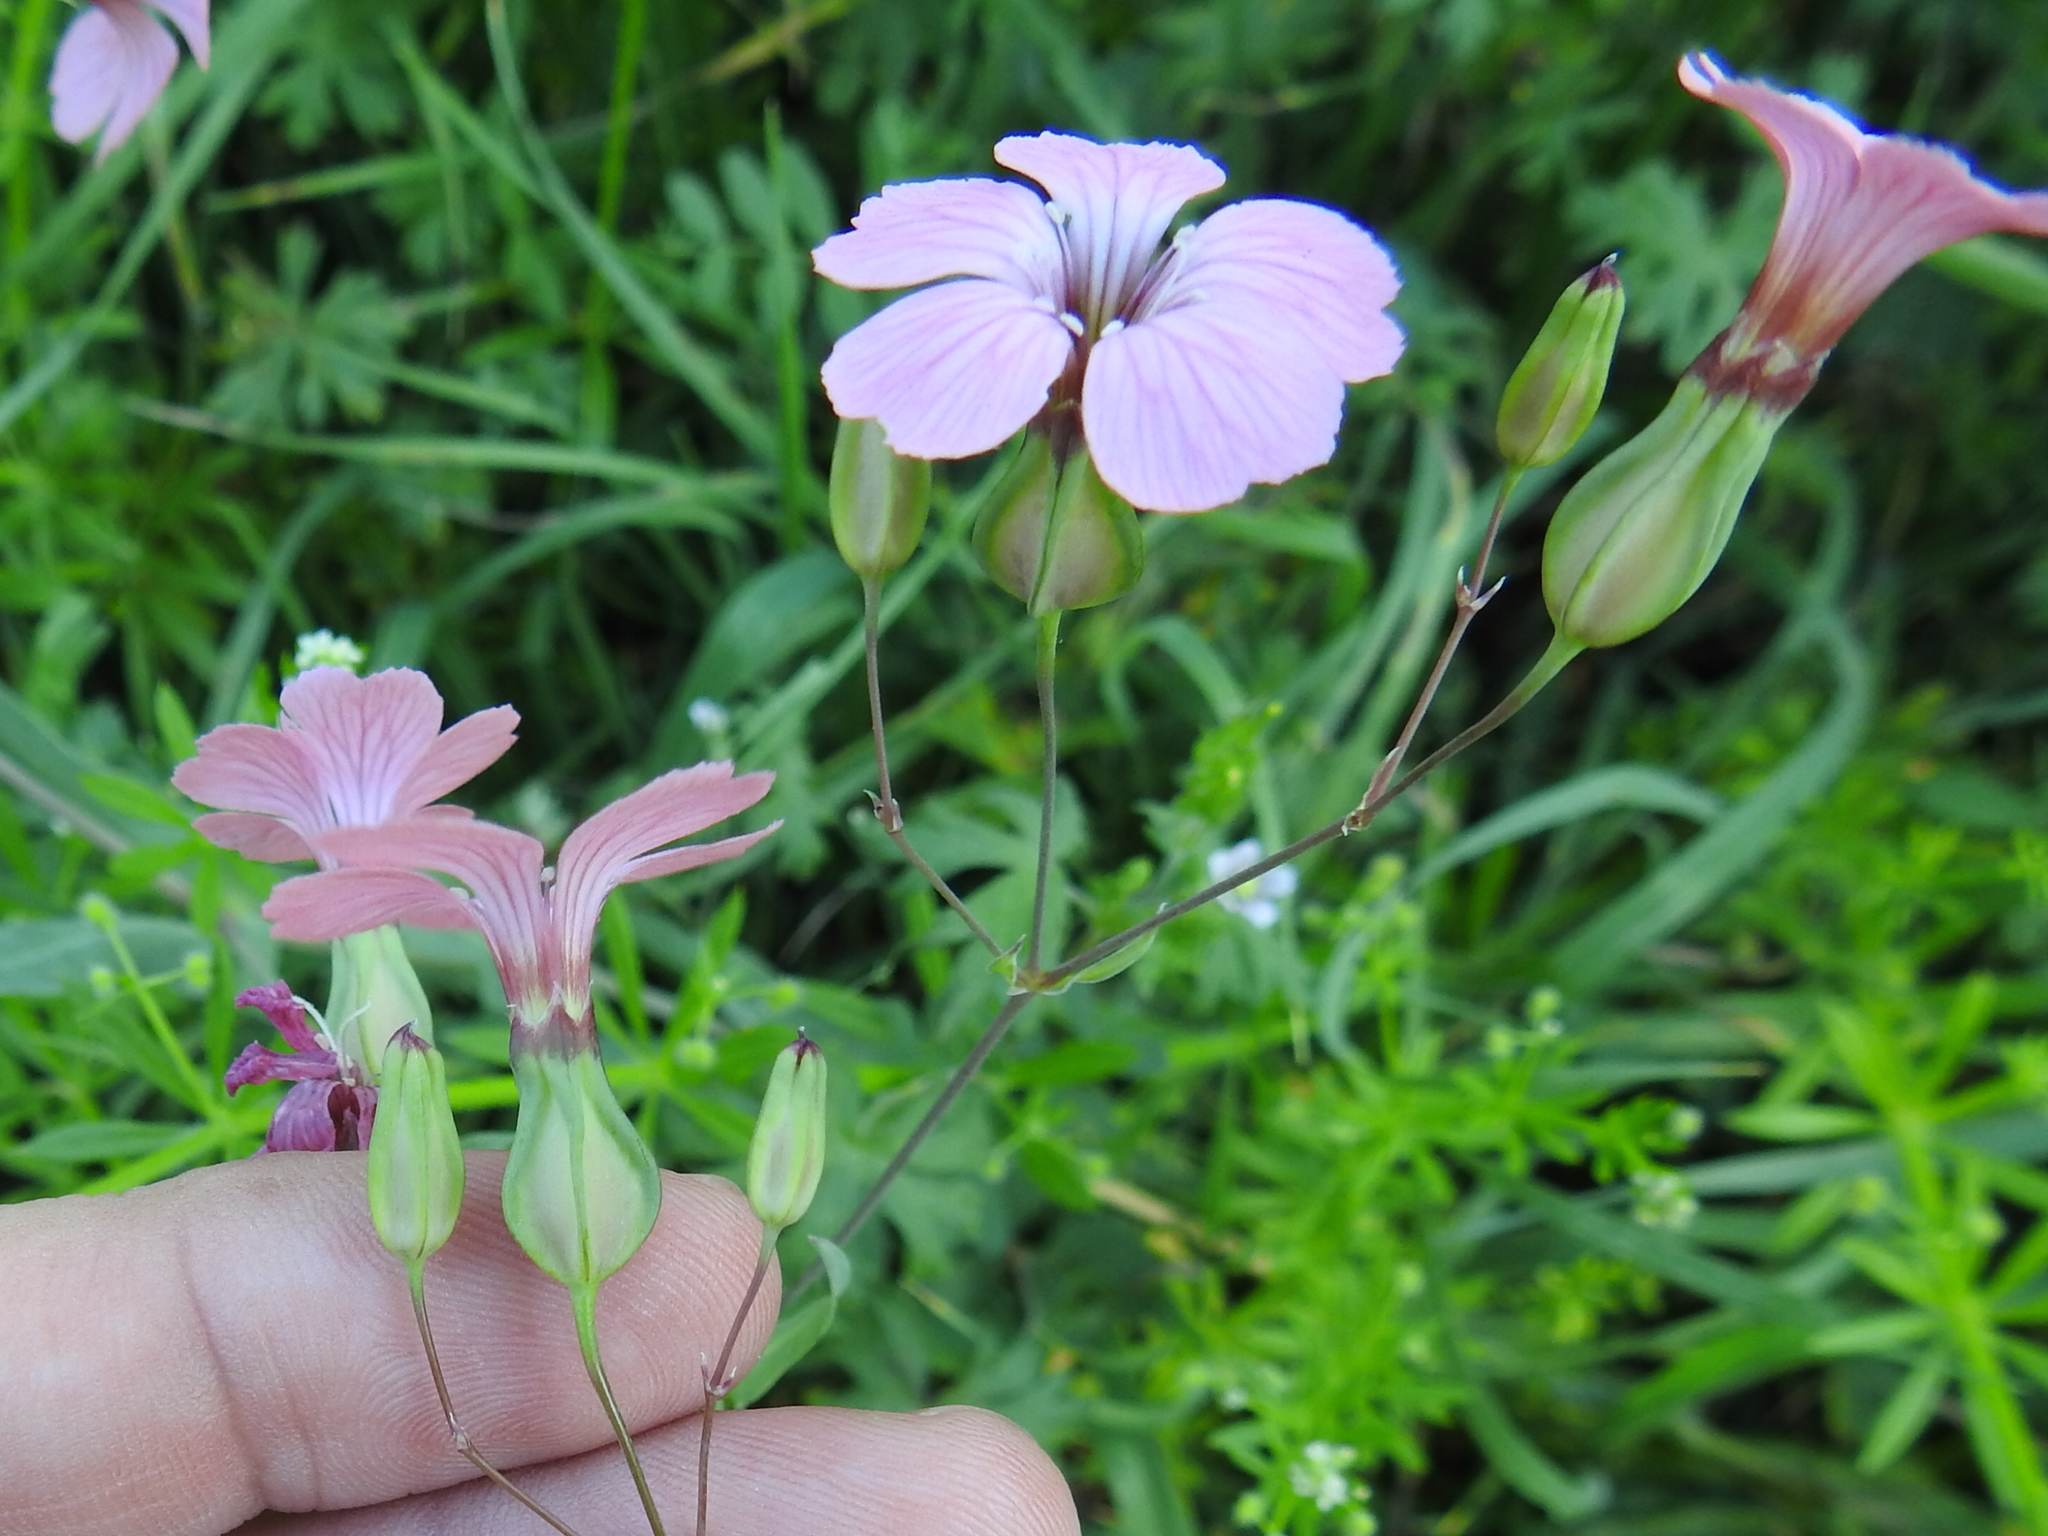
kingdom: Plantae
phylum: Tracheophyta
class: Magnoliopsida
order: Caryophyllales
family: Caryophyllaceae
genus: Gypsophila
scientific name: Gypsophila vaccaria
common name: Cow soapwort
